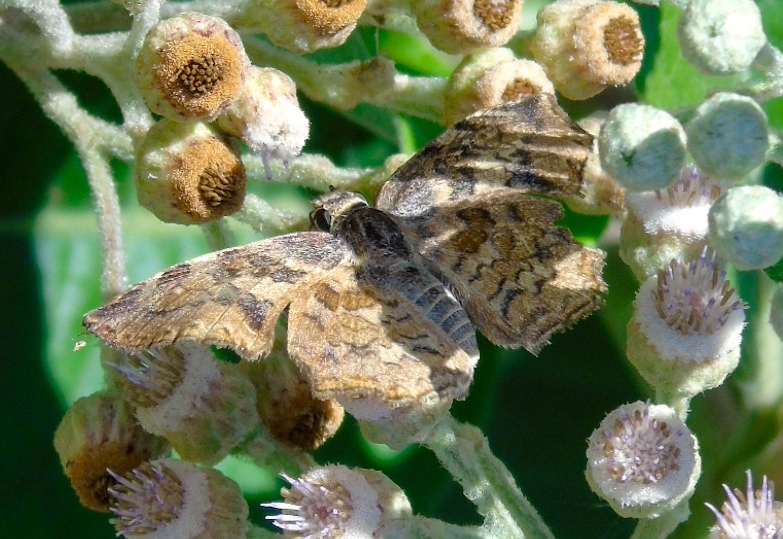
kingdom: Animalia
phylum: Arthropoda
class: Insecta
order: Lepidoptera
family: Hesperiidae
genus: Antigonus
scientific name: Antigonus erosus
